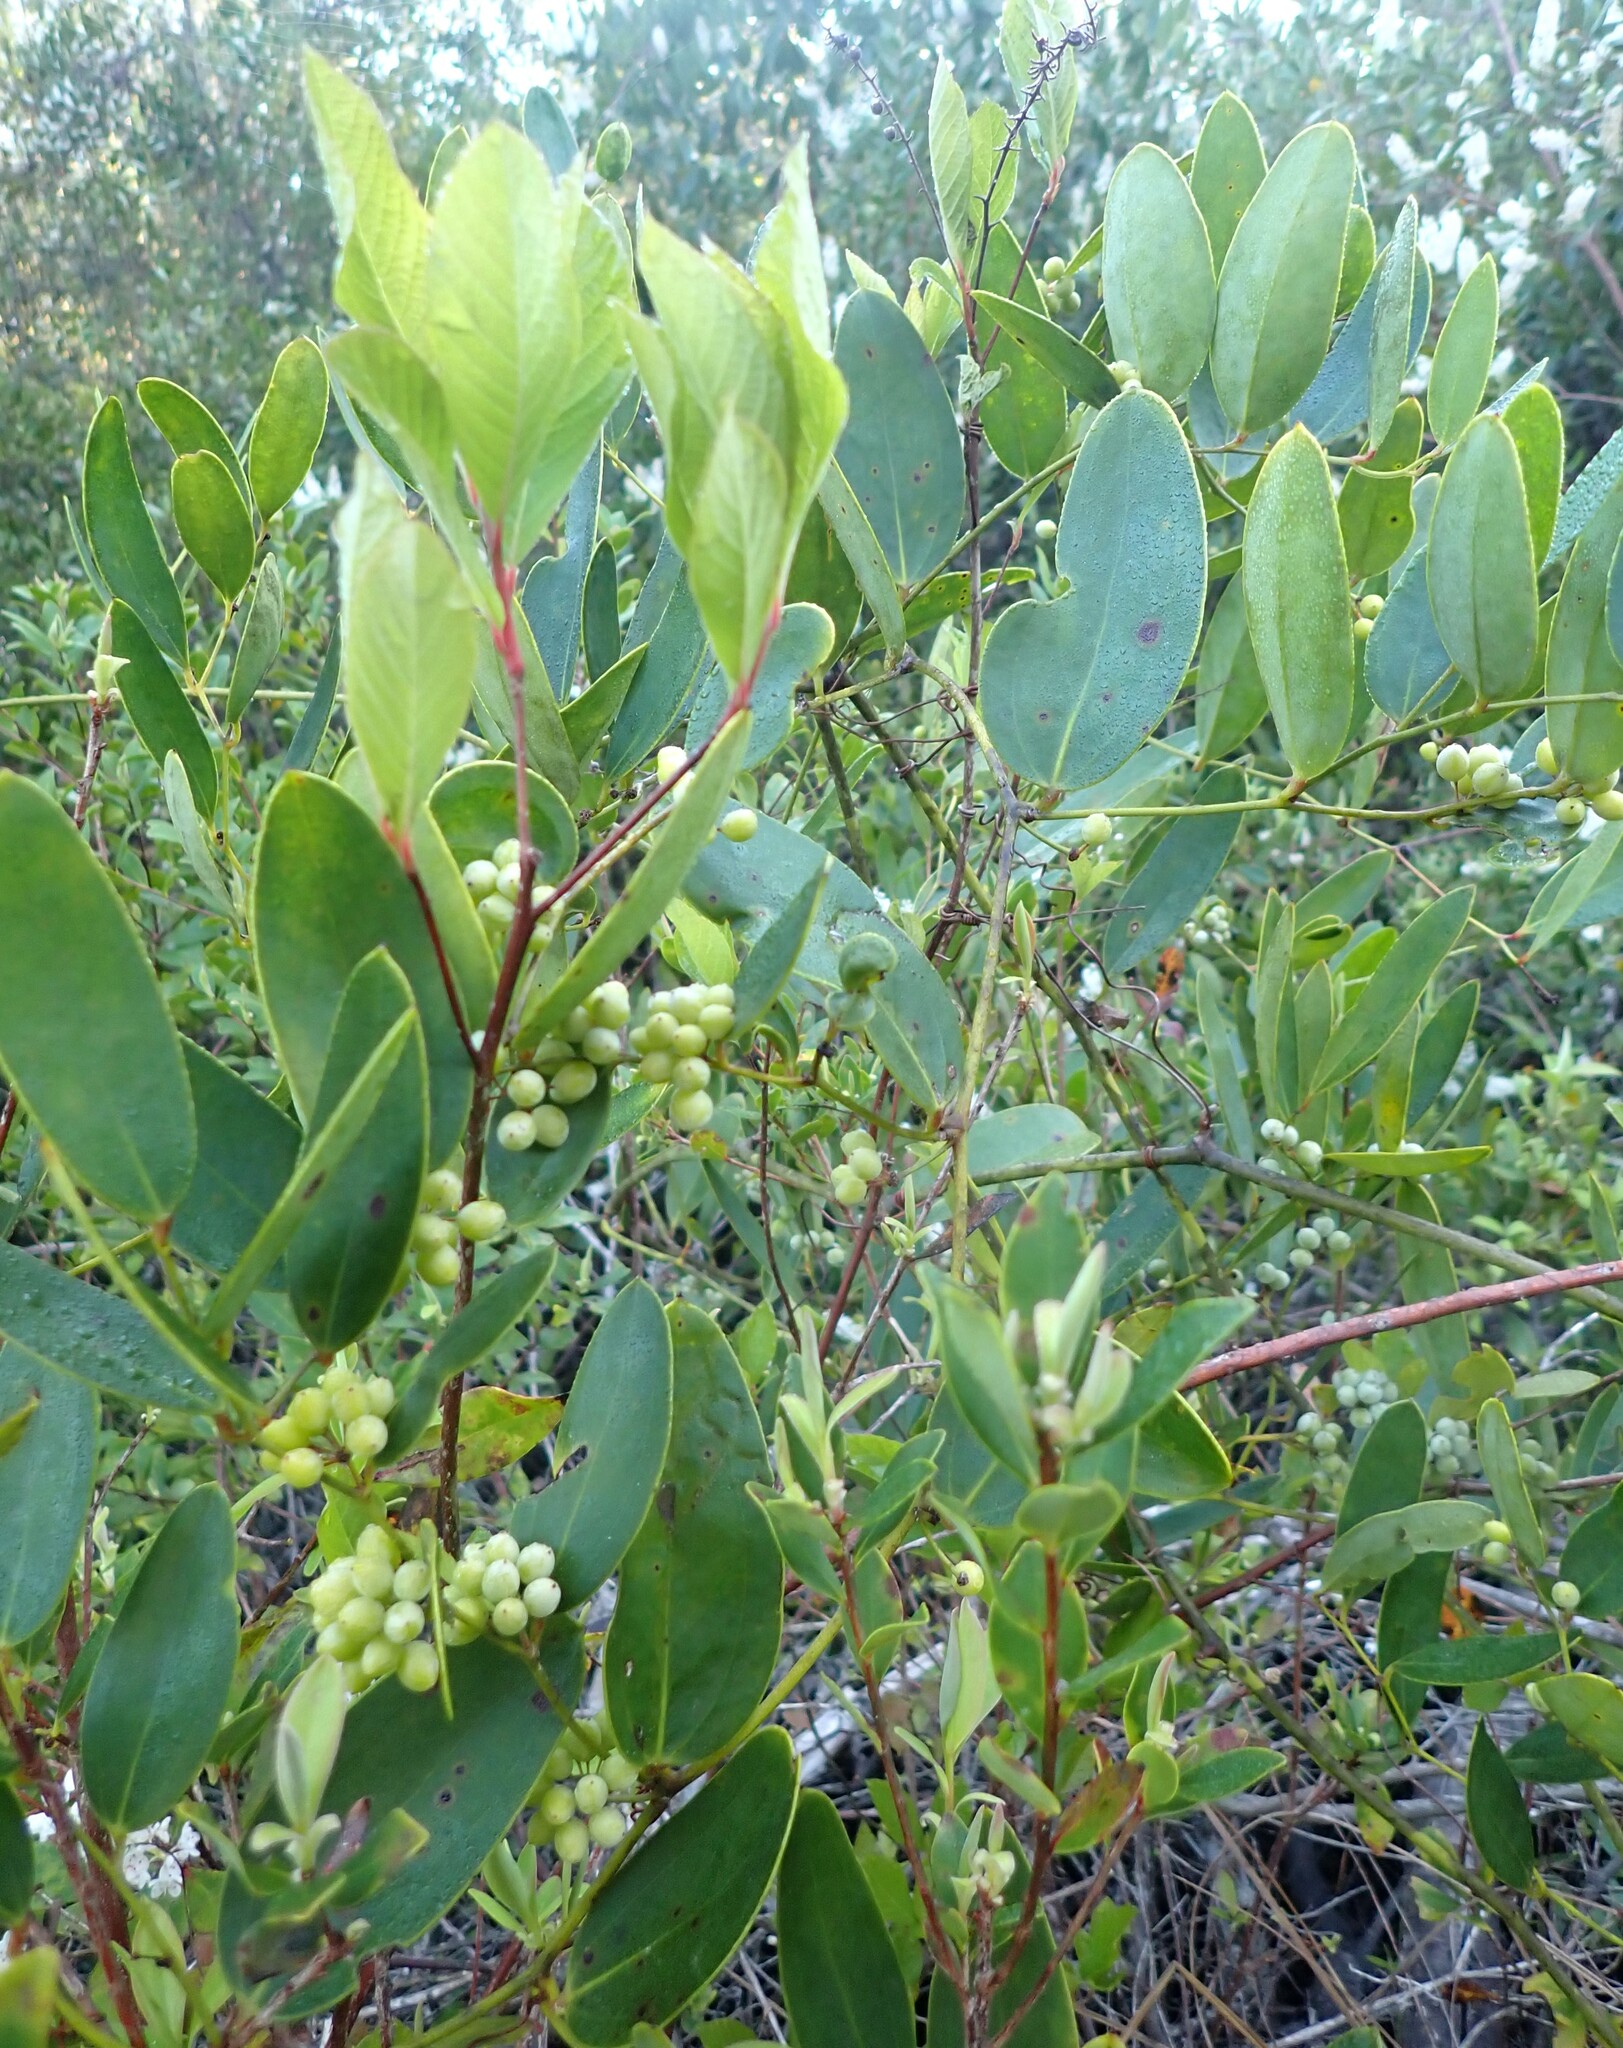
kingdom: Plantae
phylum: Tracheophyta
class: Liliopsida
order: Liliales
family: Smilacaceae
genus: Smilax
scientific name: Smilax laurifolia
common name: Bamboovine
